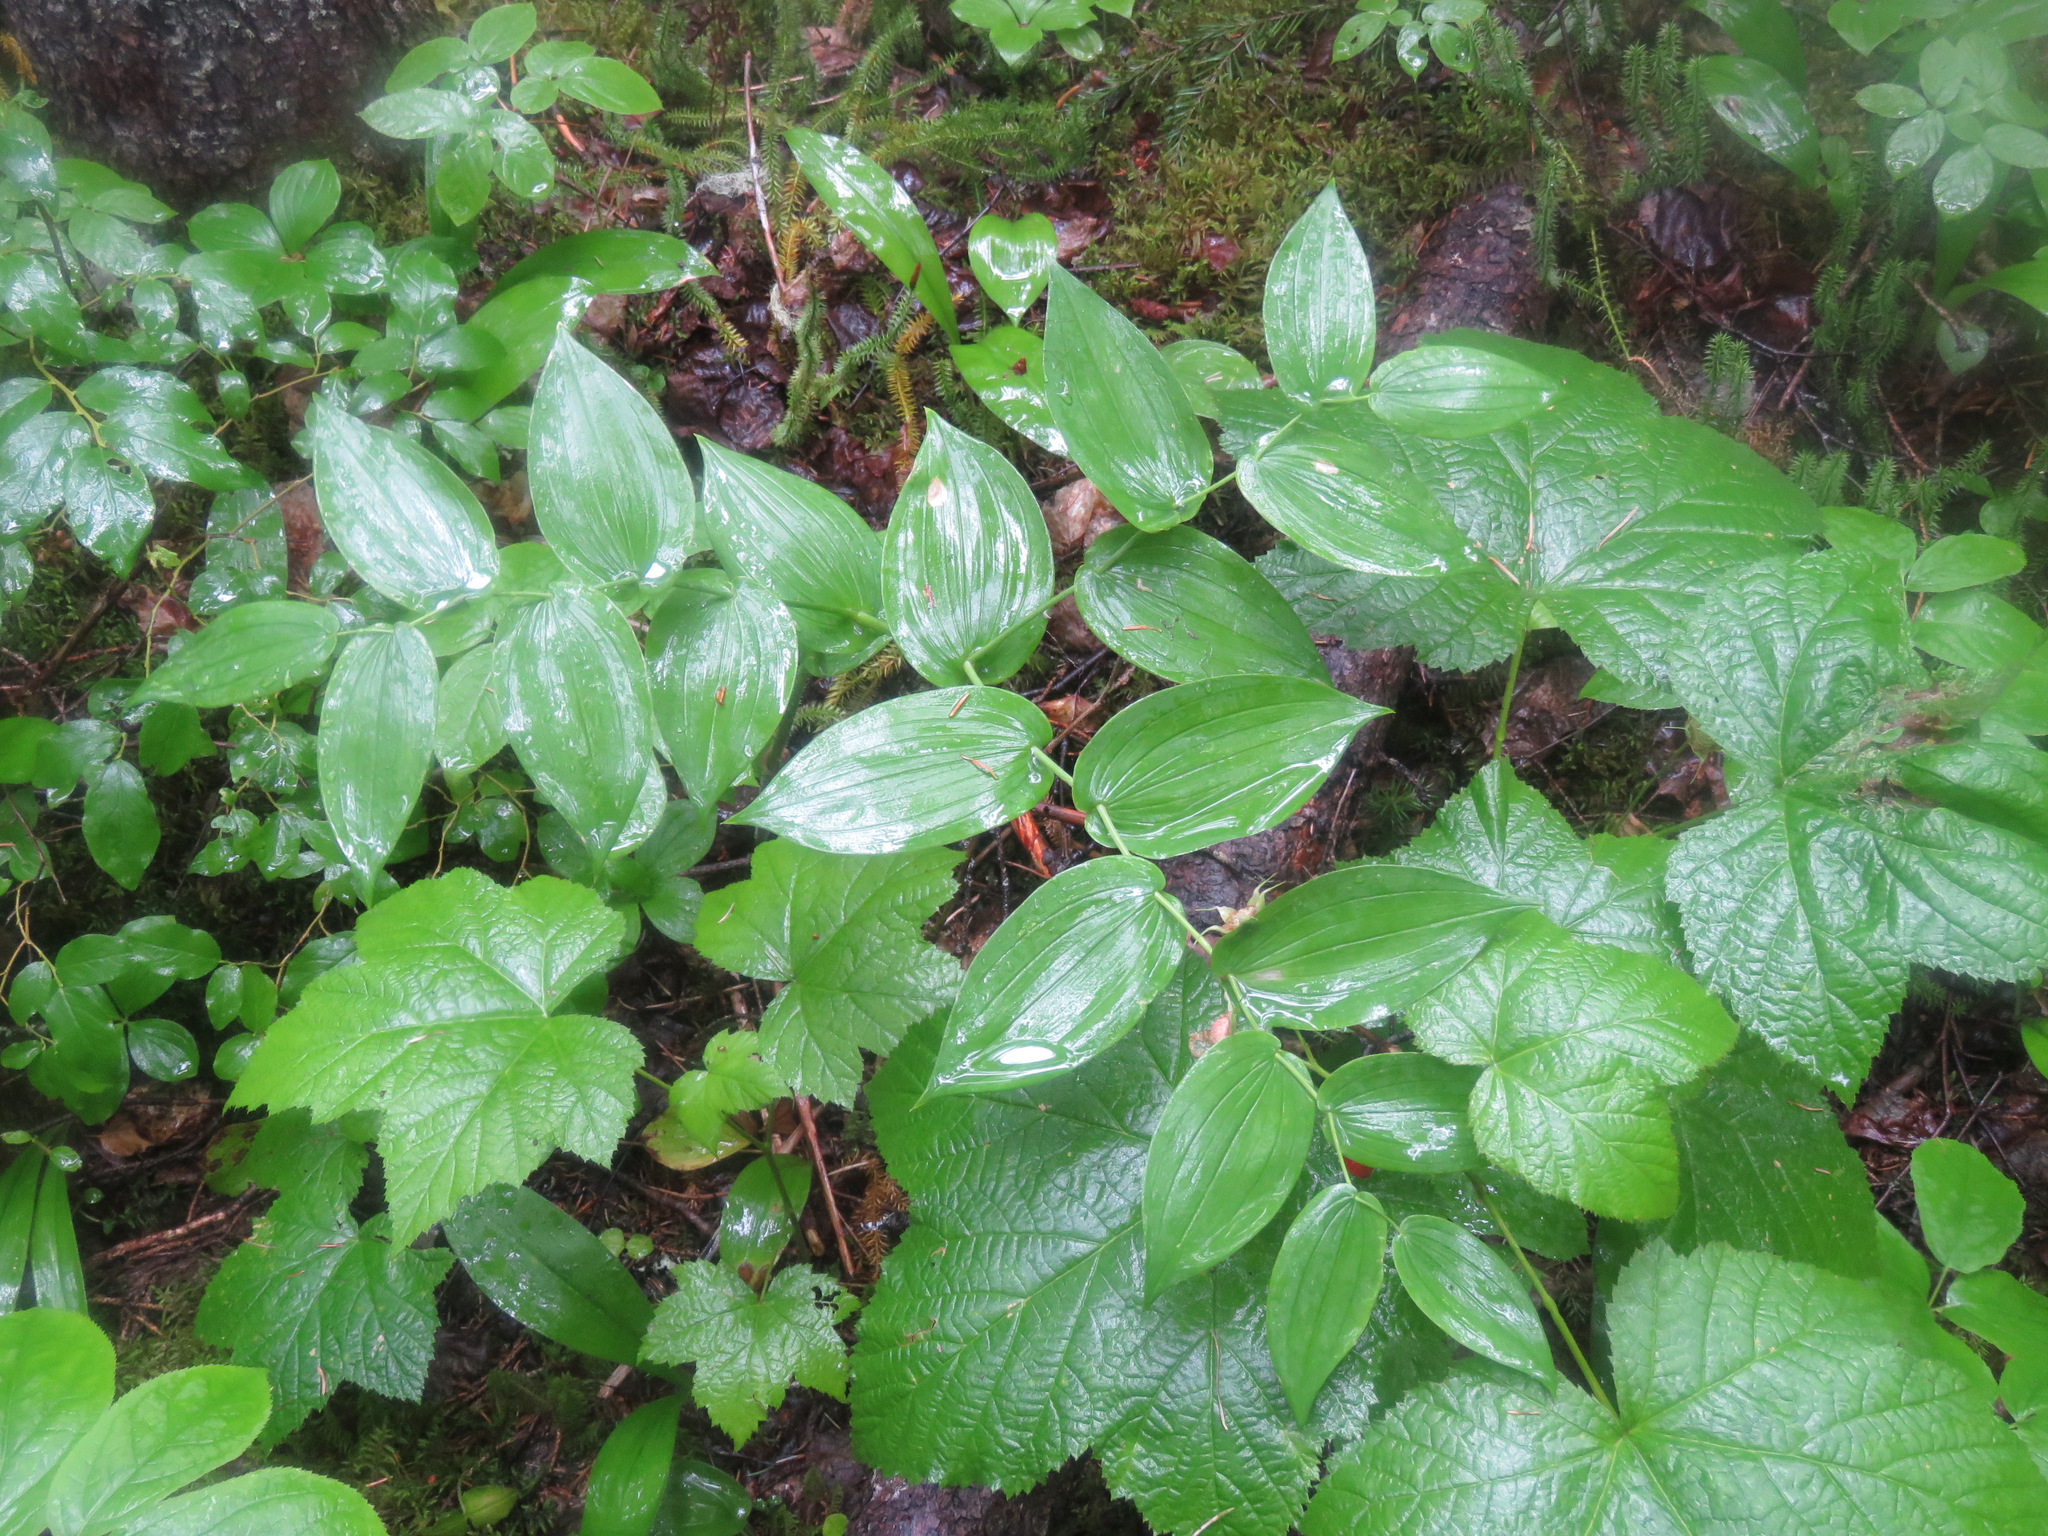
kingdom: Plantae
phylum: Tracheophyta
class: Liliopsida
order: Liliales
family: Liliaceae
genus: Streptopus
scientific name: Streptopus amplexifolius
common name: Clasp twisted stalk
